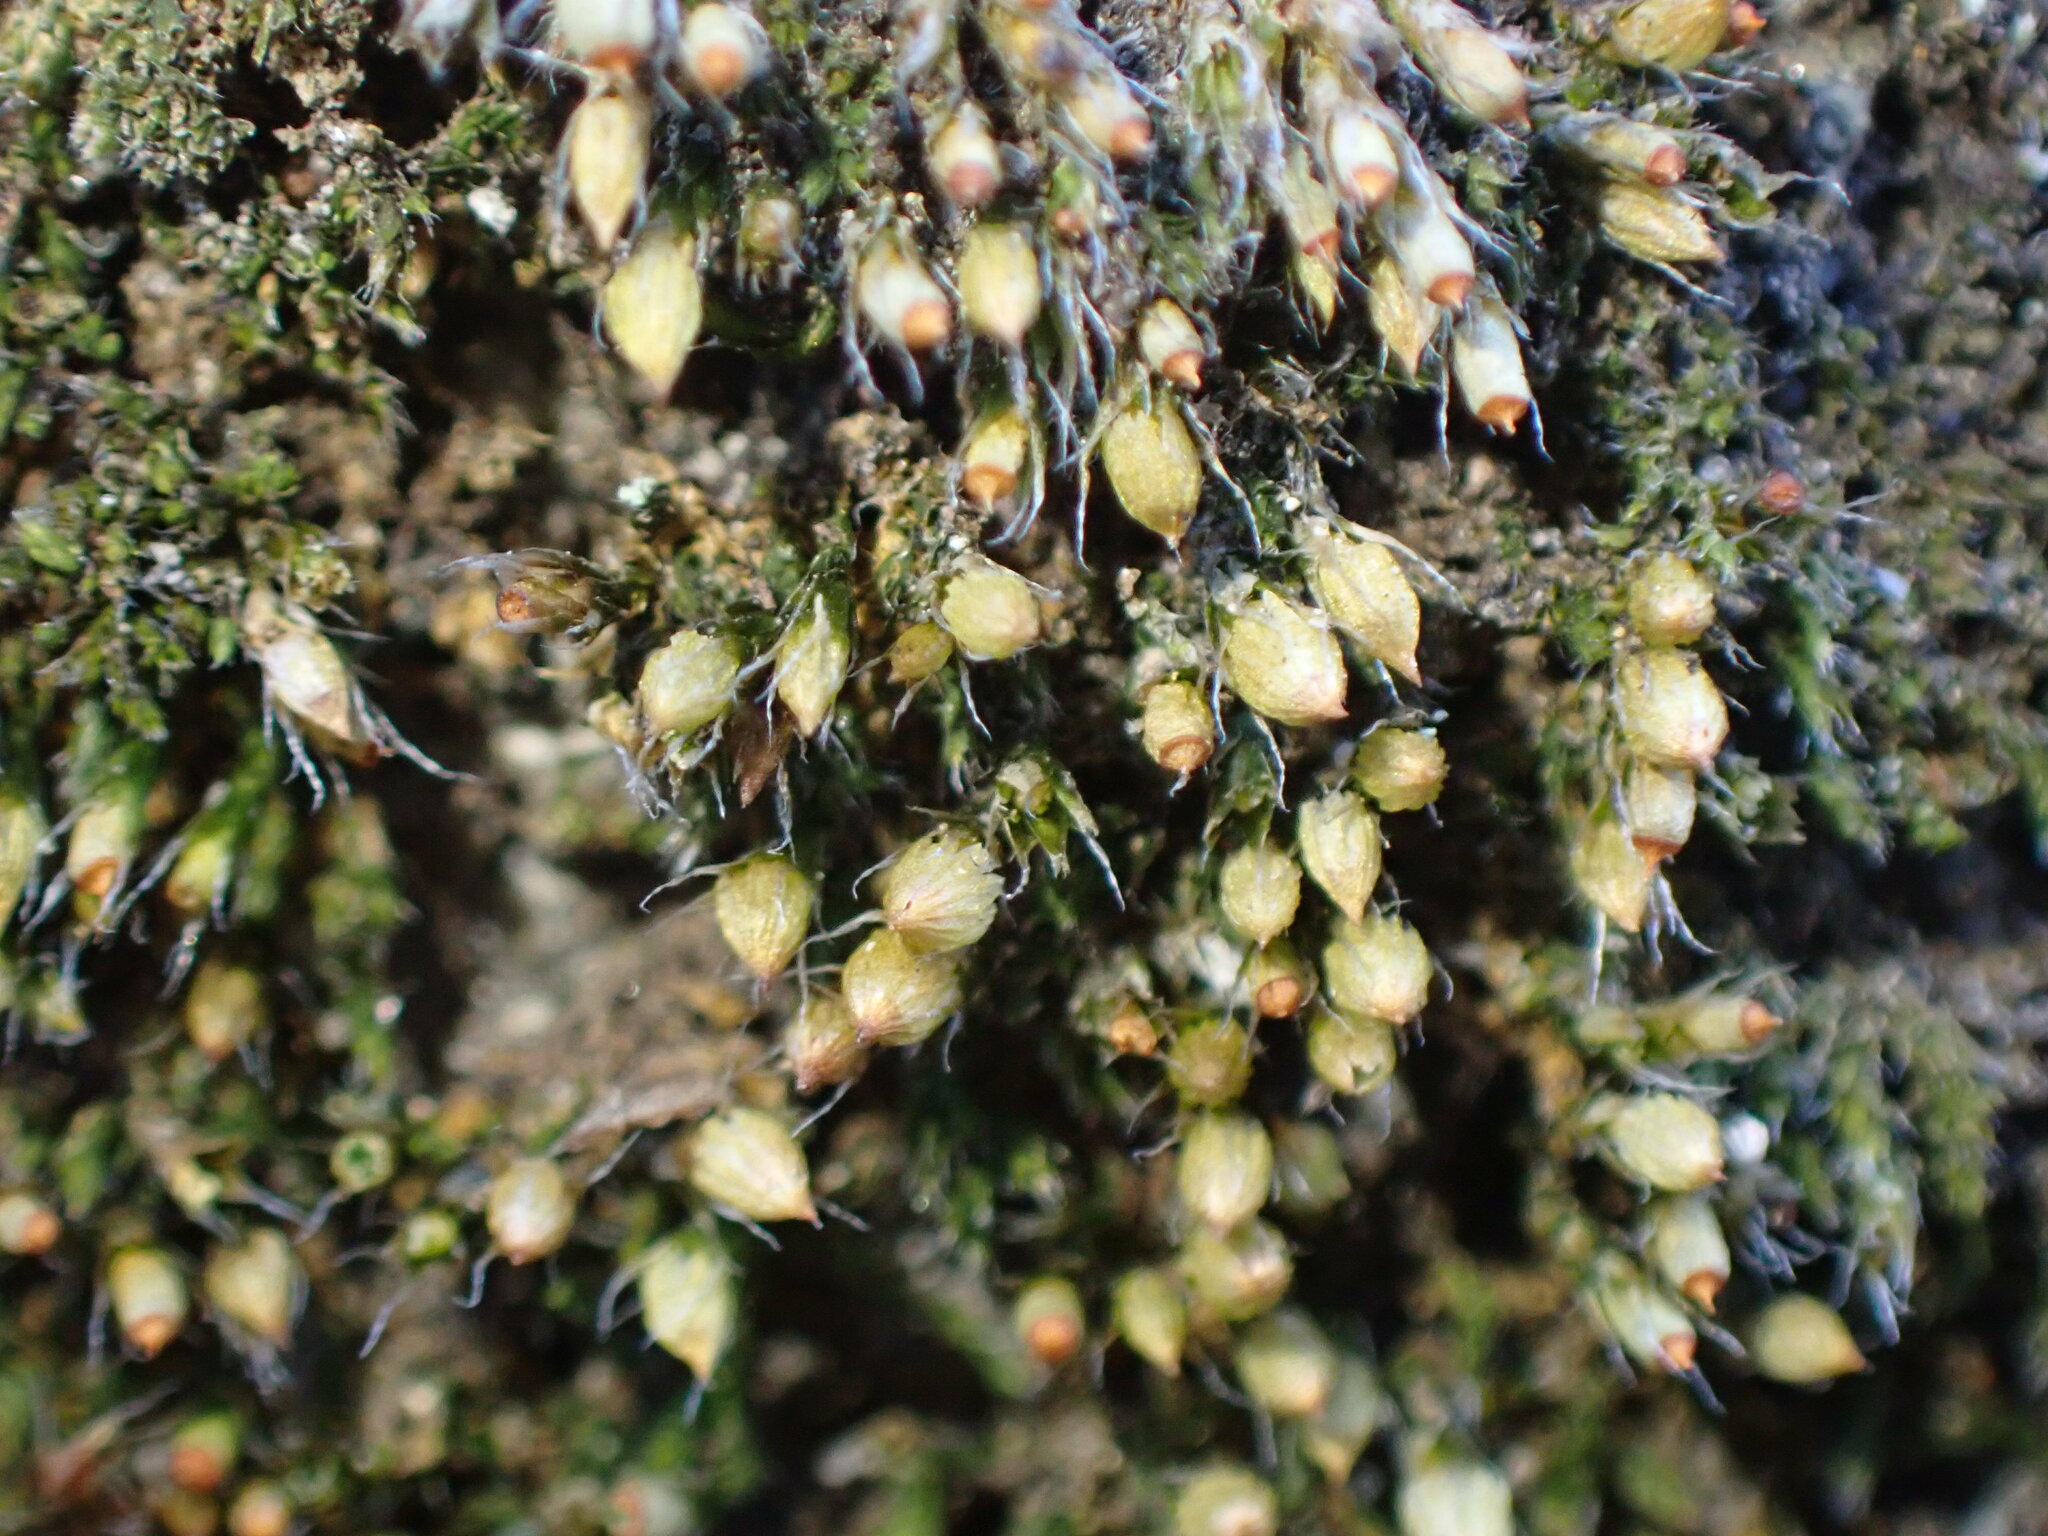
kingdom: Plantae
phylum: Bryophyta
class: Bryopsida
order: Dicranales
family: Erpodiaceae
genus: Venturiella
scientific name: Venturiella sinensis
